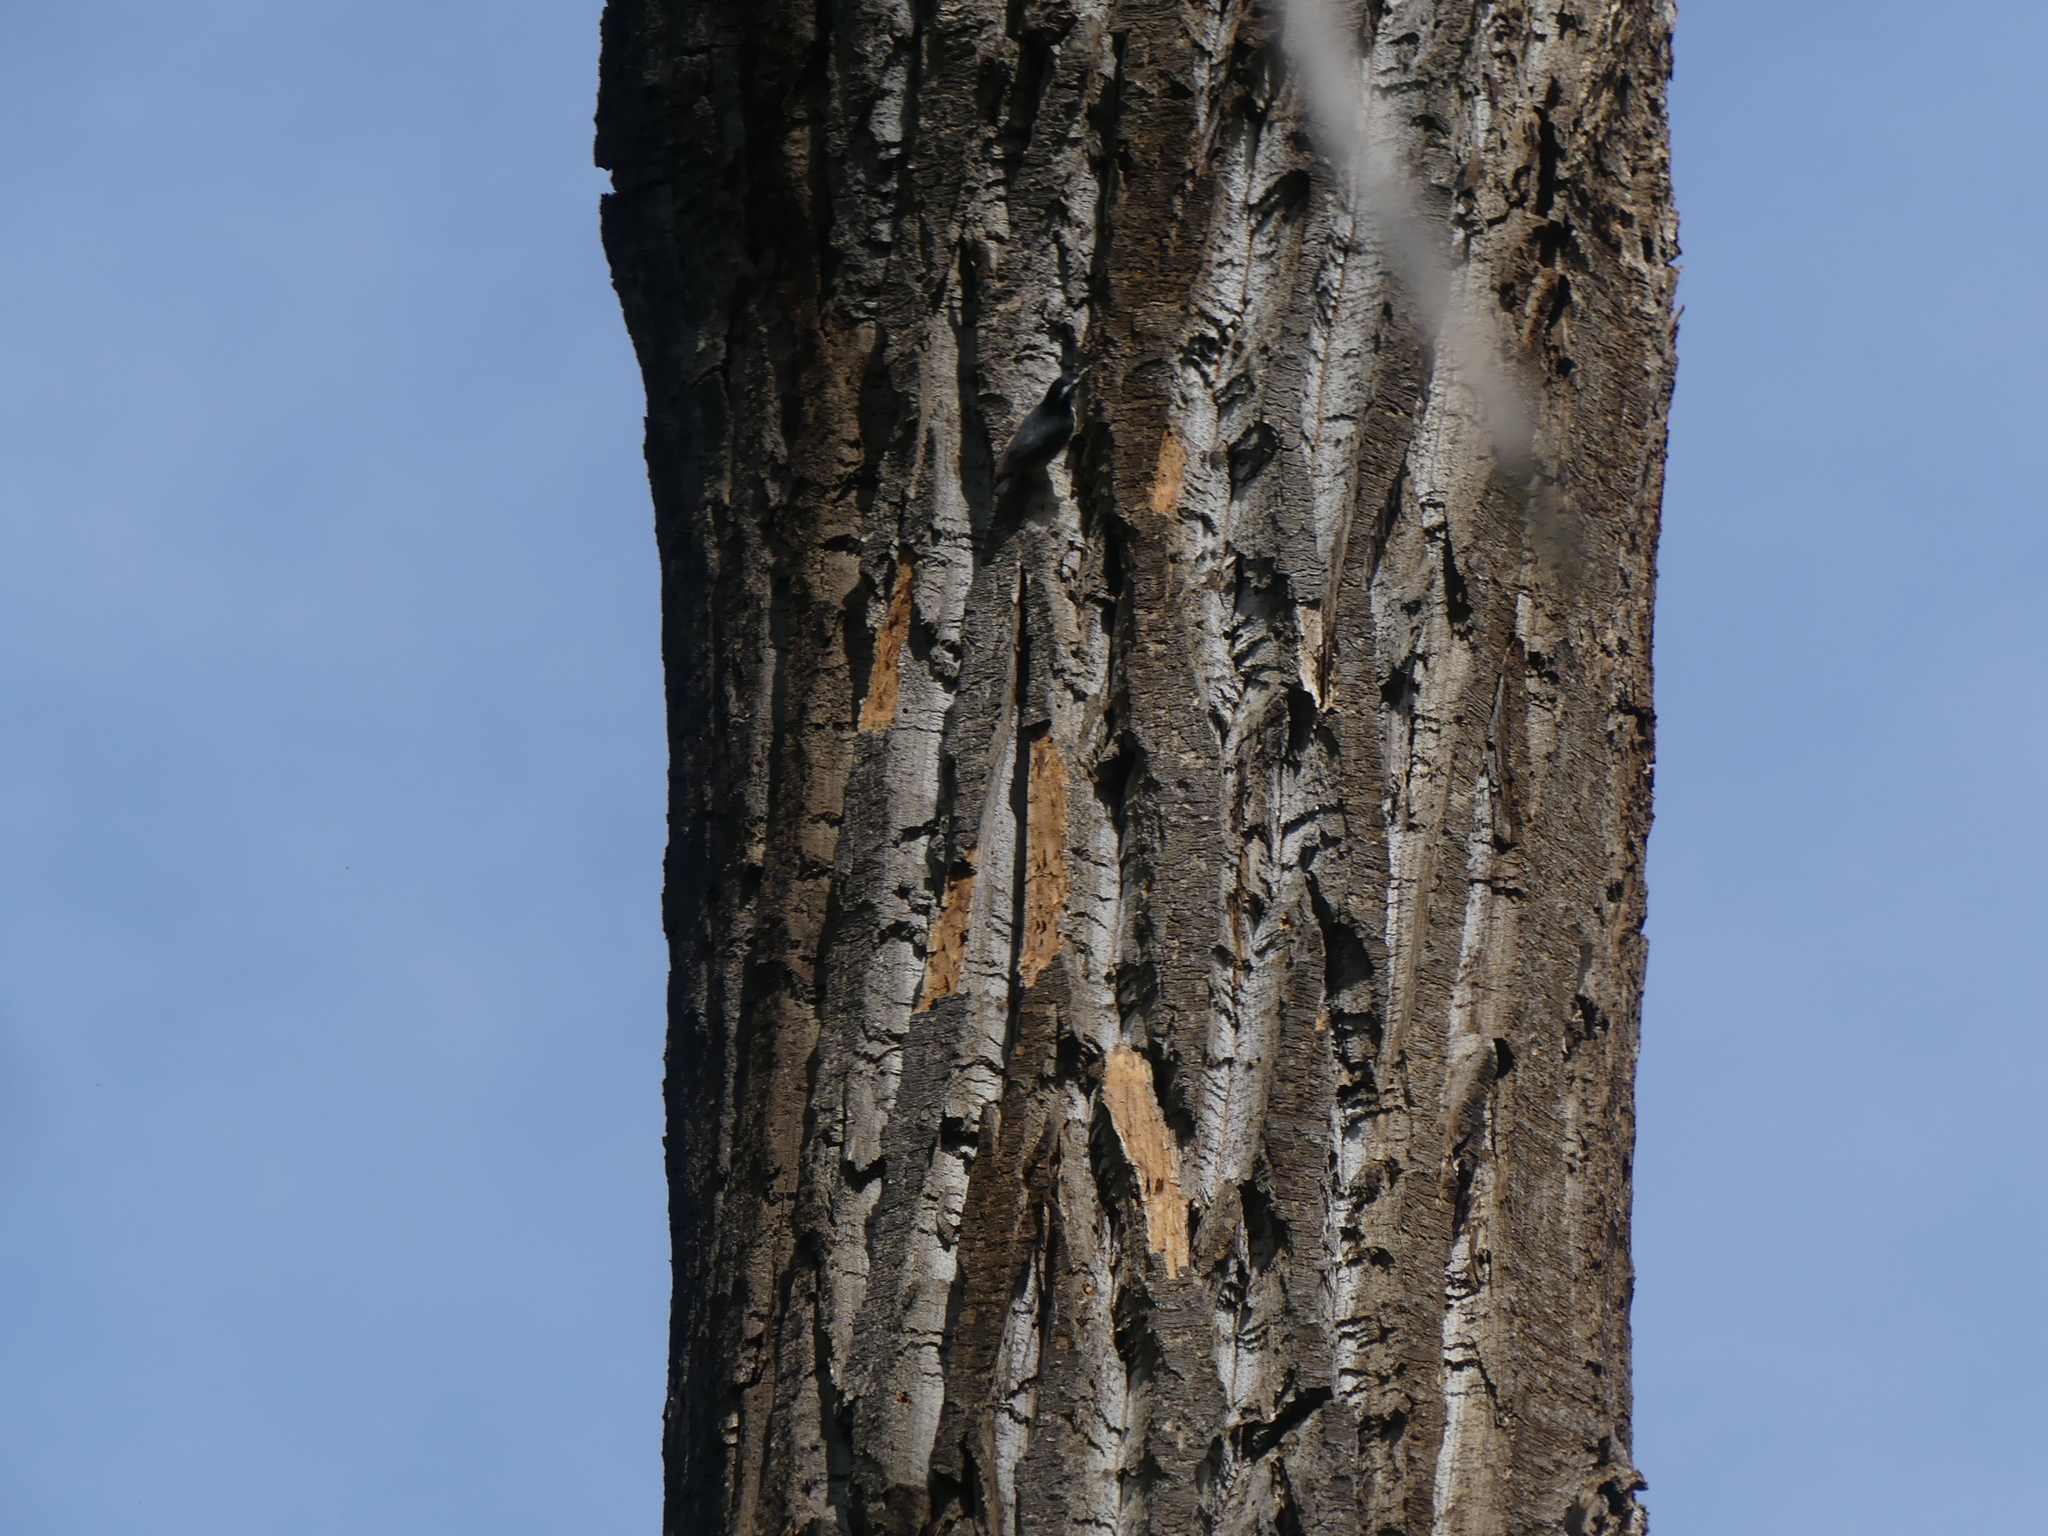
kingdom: Animalia
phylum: Chordata
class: Aves
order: Passeriformes
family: Sittidae
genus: Sitta
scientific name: Sitta canadensis
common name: Red-breasted nuthatch
